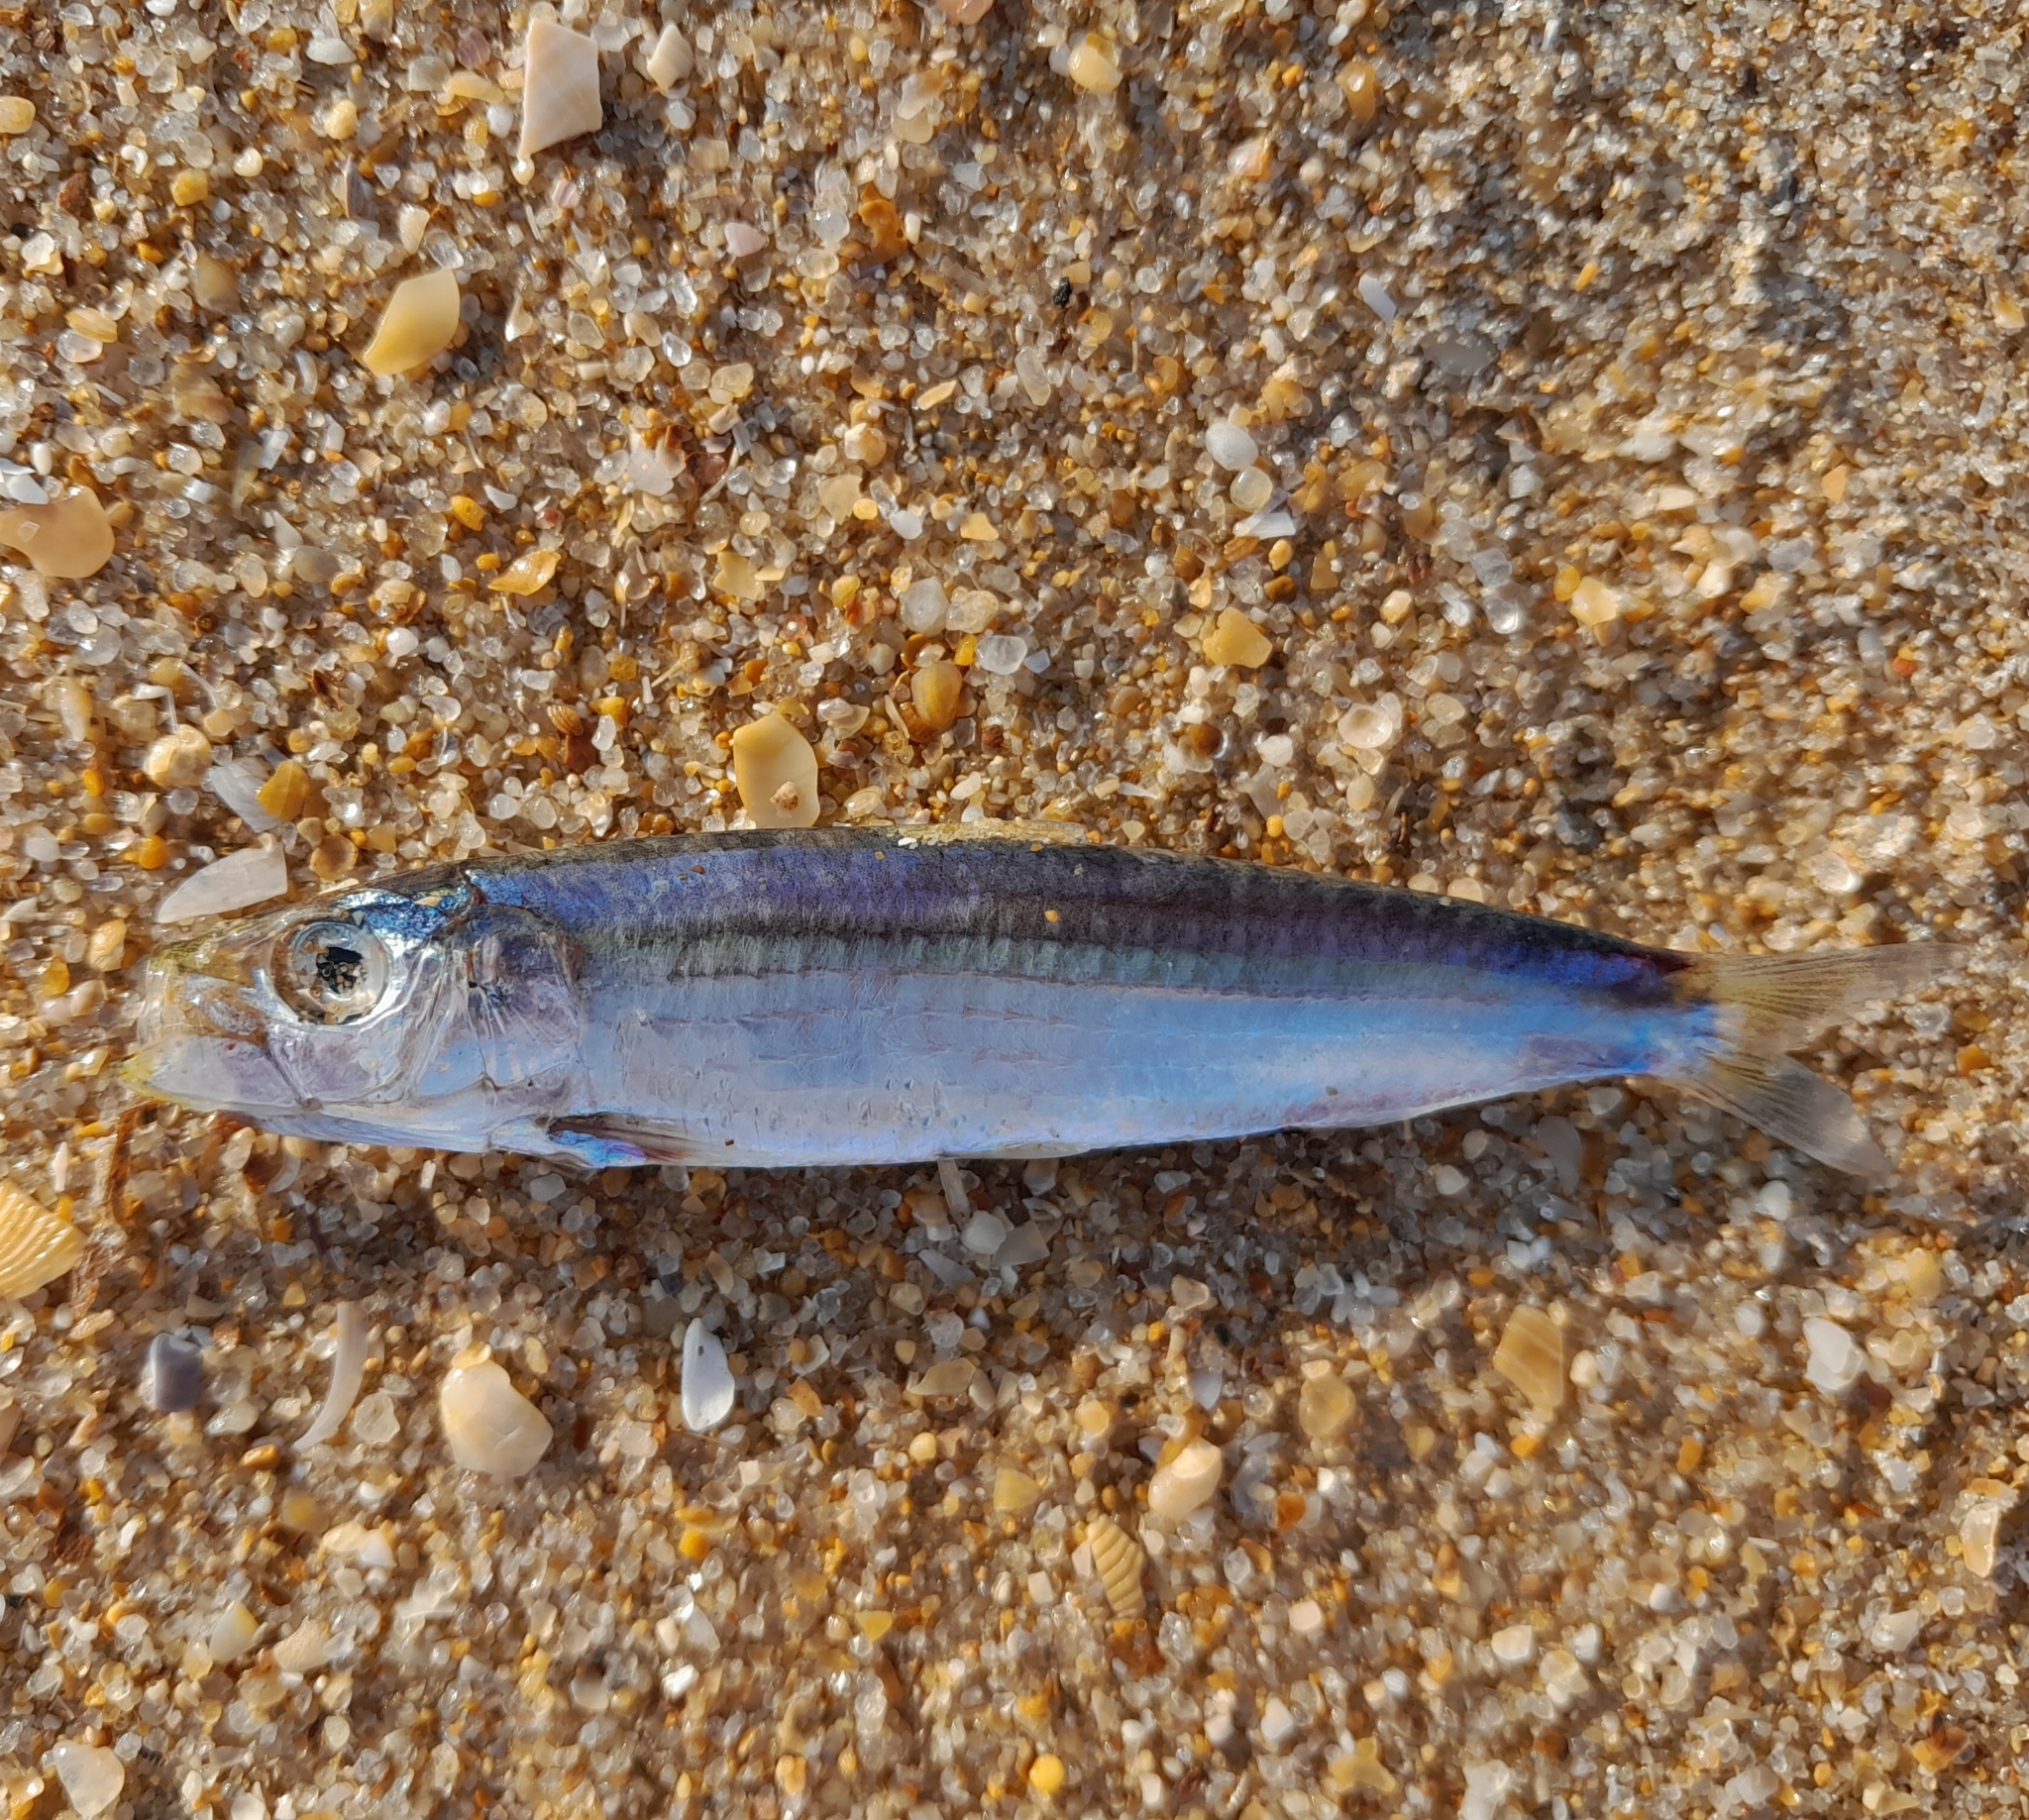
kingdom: Animalia
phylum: Chordata
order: Clupeiformes
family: Clupeidae
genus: Sardina
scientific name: Sardina pilchardus
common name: Pilchard
